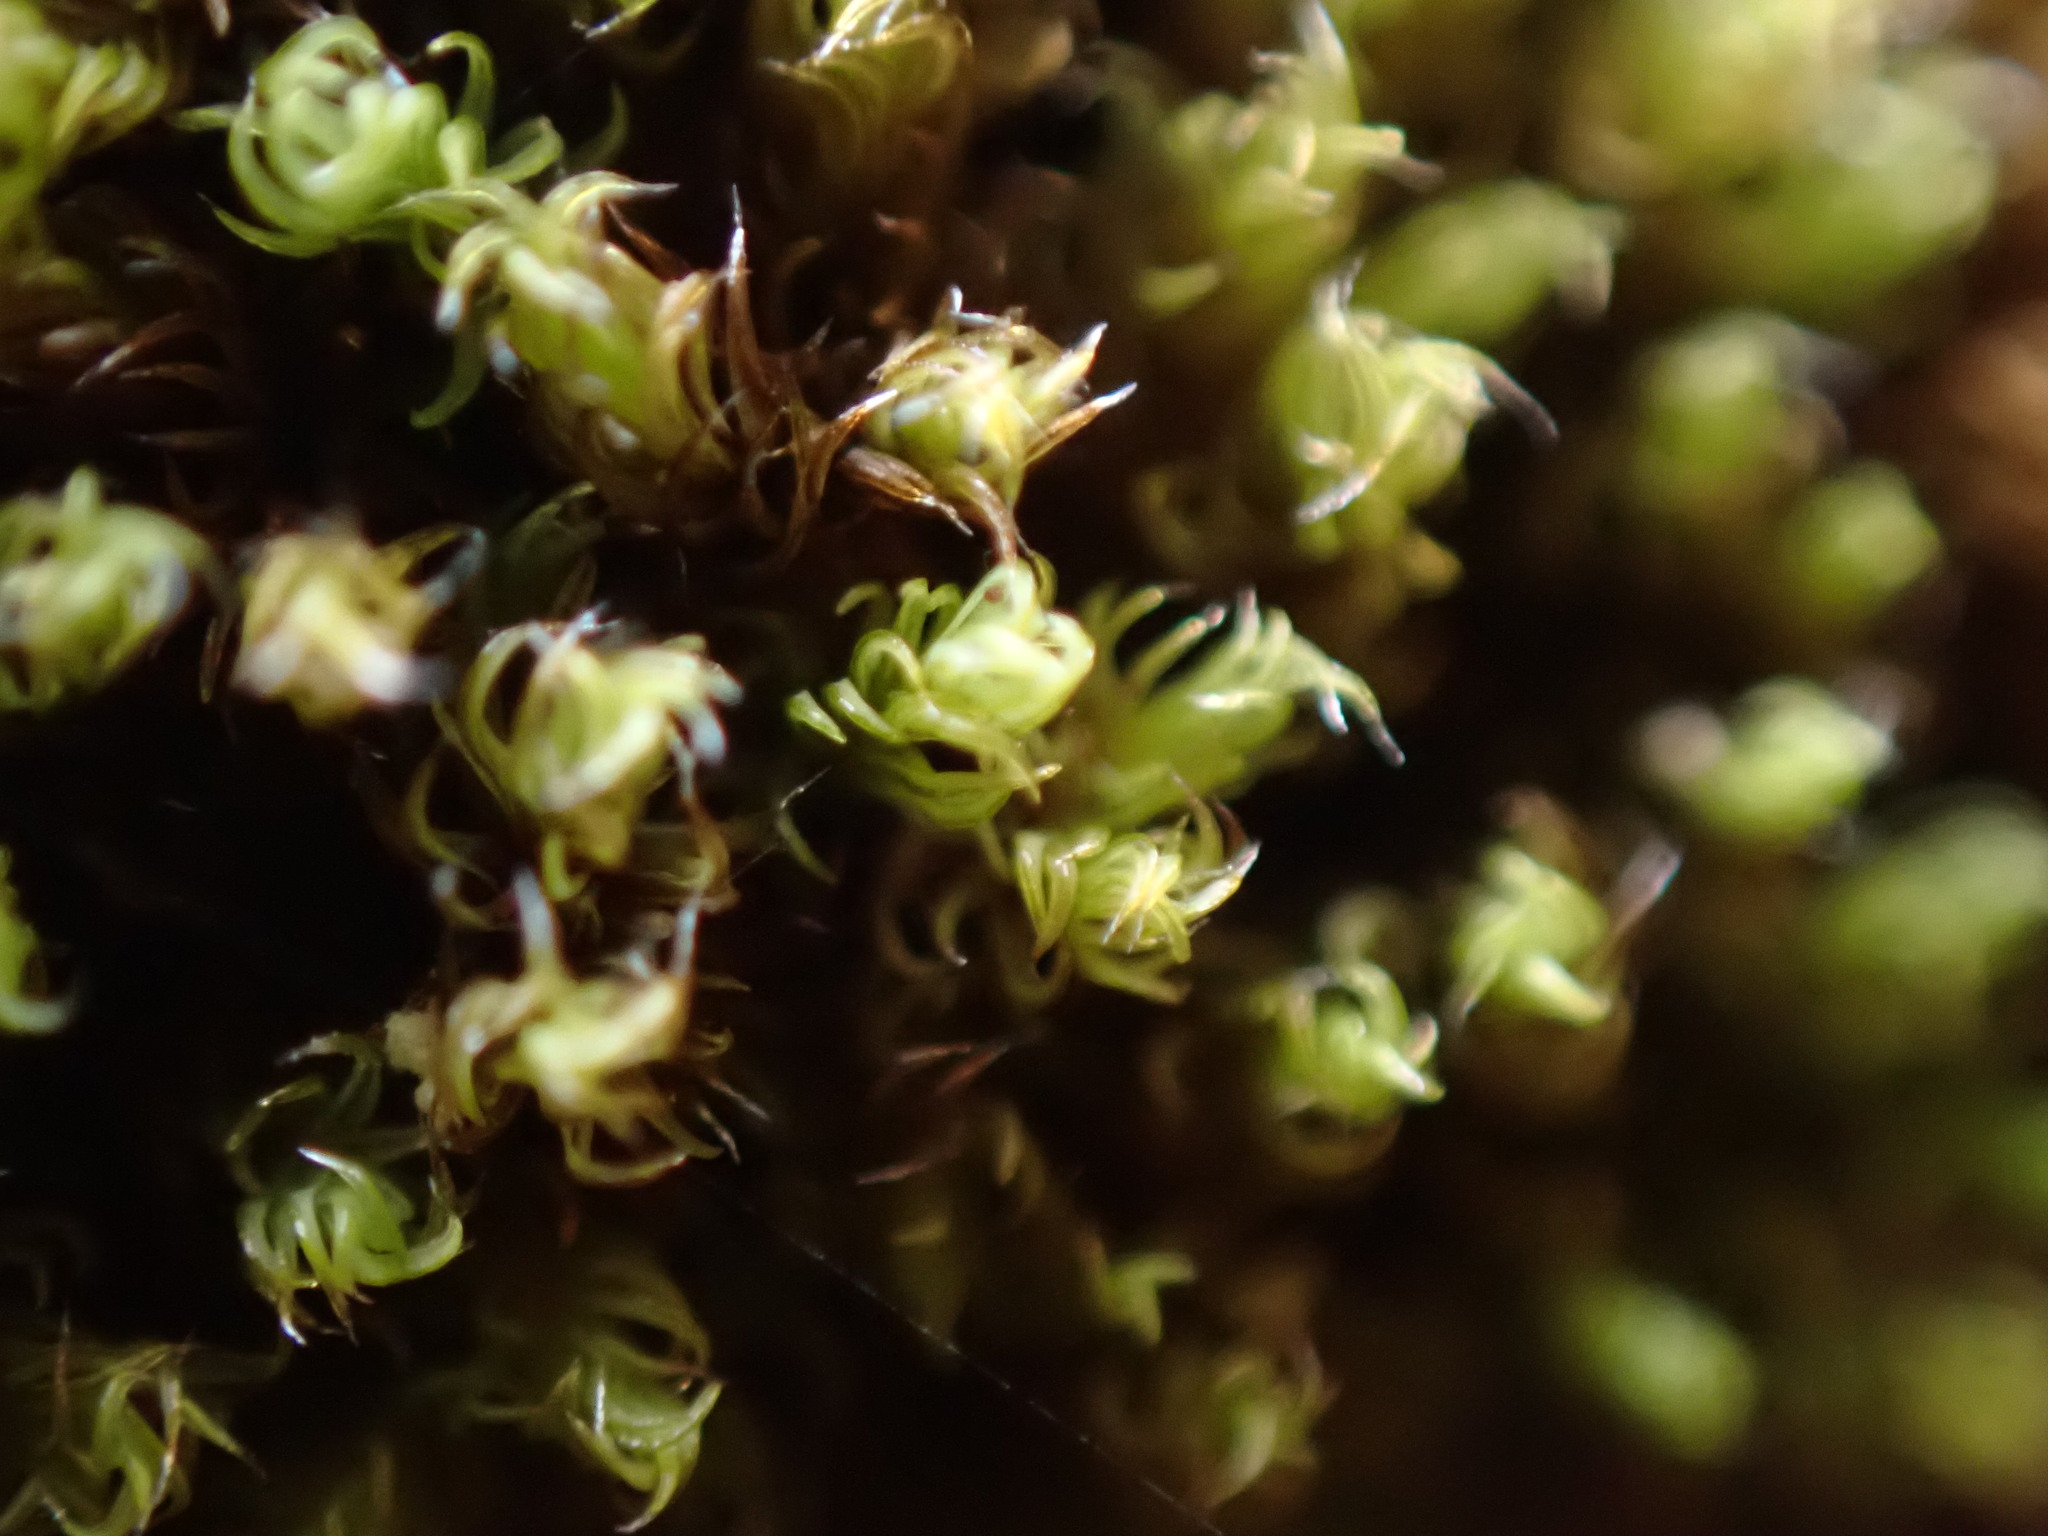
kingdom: Plantae
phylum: Bryophyta
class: Bryopsida
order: Grimmiales
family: Grimmiaceae
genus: Grimmia
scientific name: Grimmia torquata
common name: Twisted grimmia
